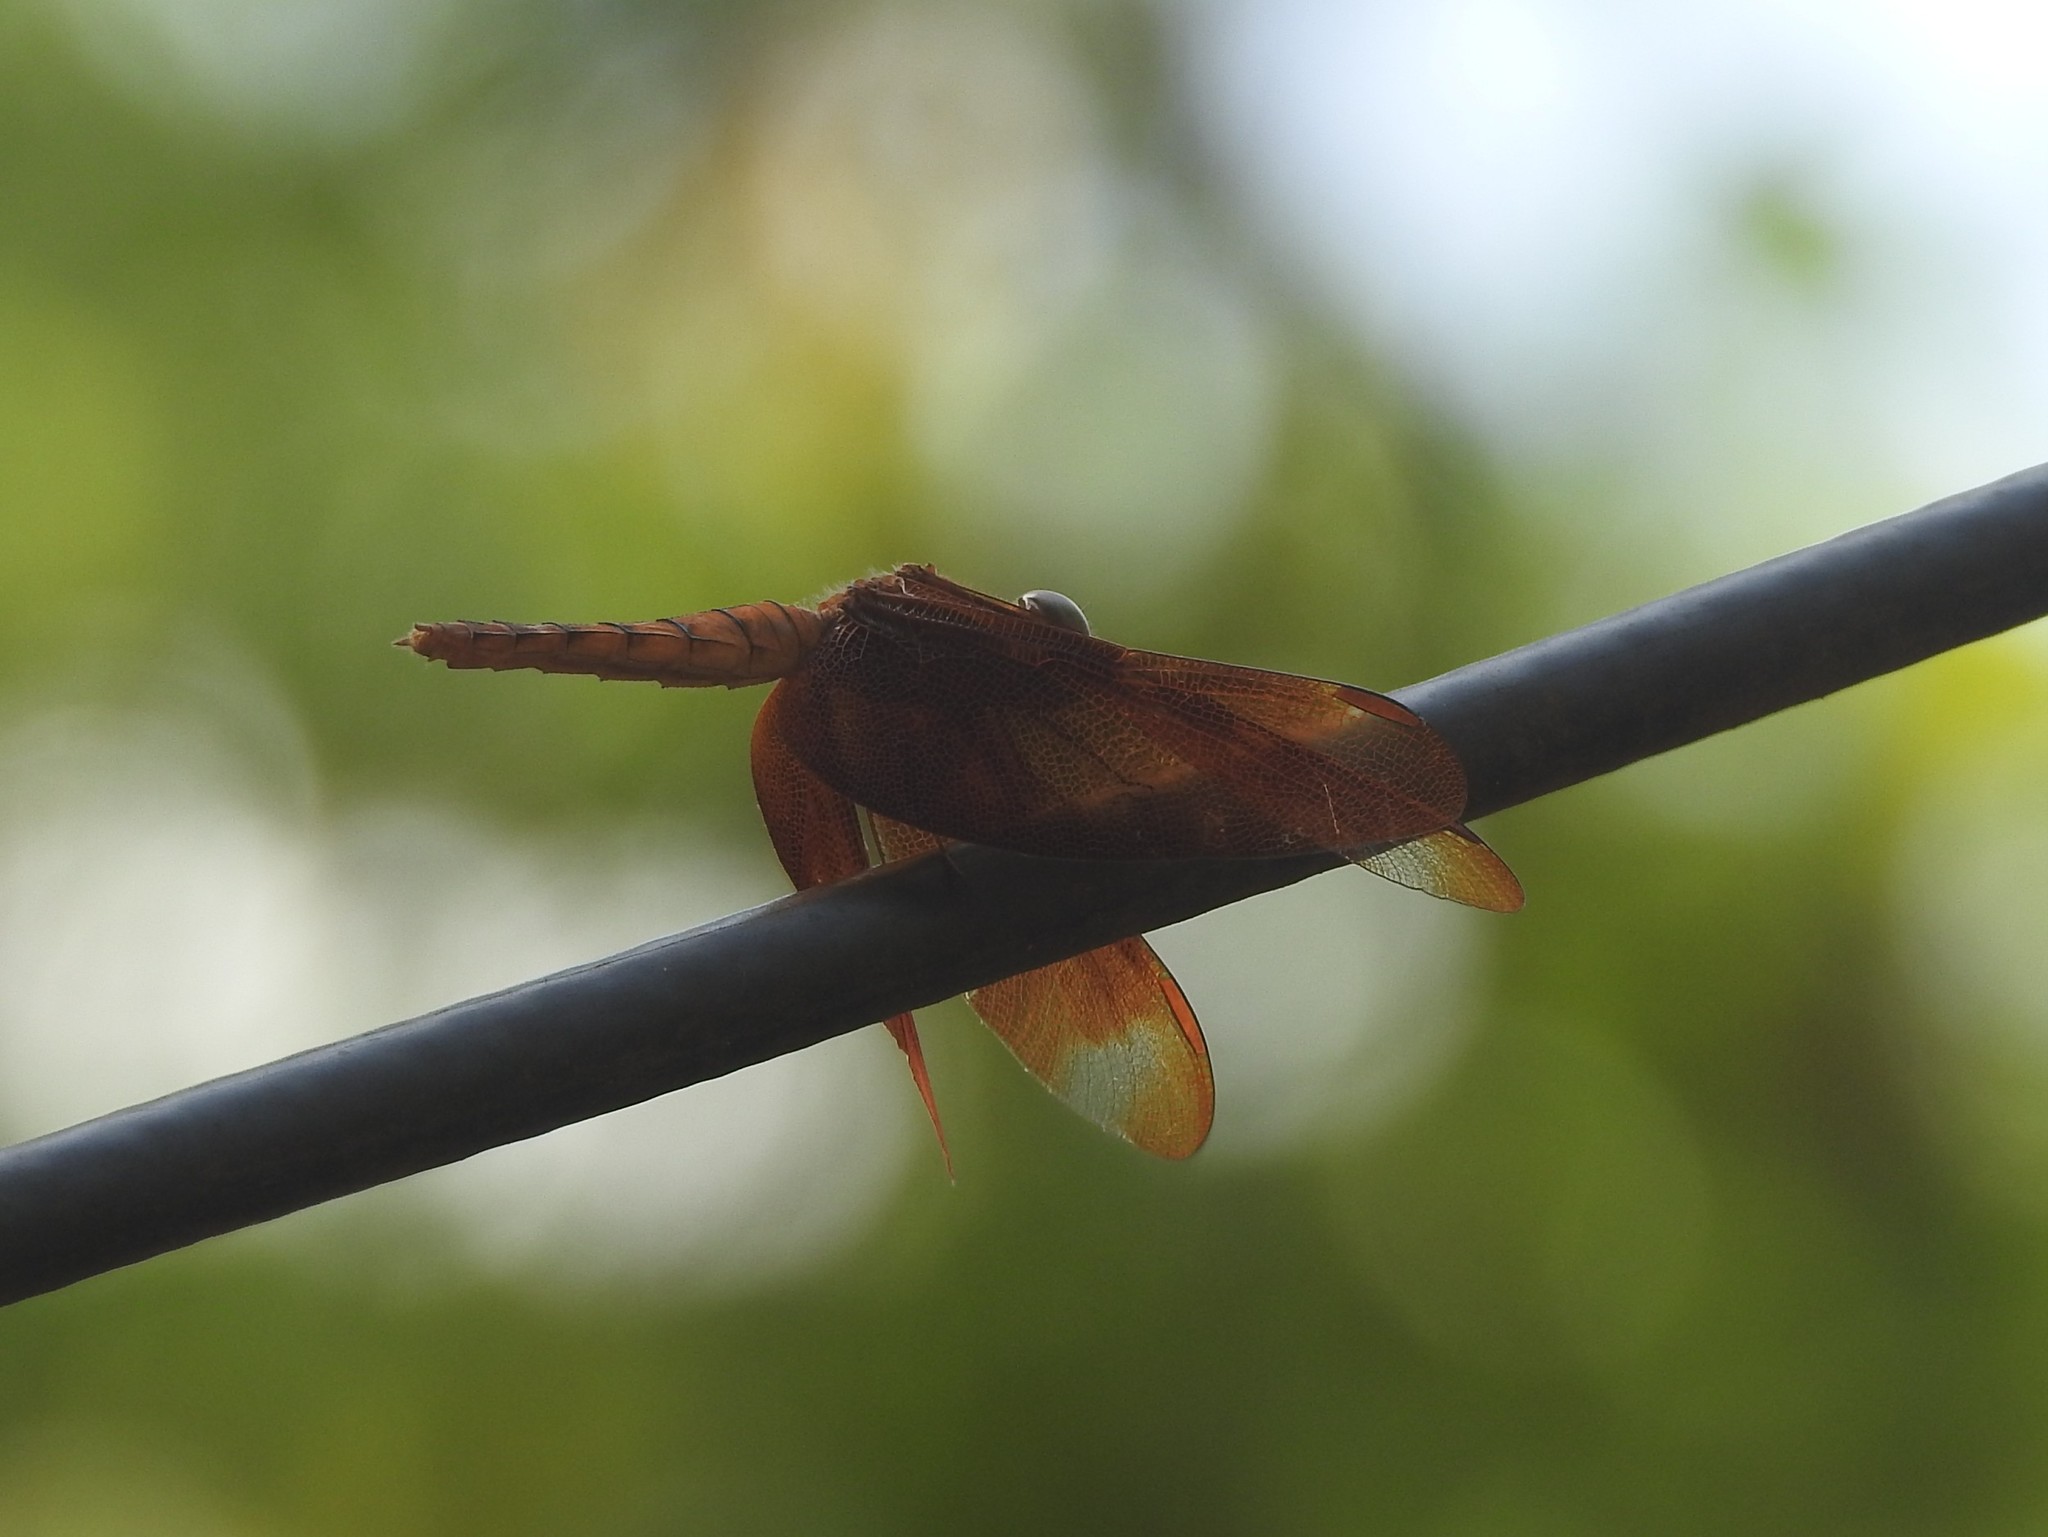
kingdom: Animalia
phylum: Arthropoda
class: Insecta
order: Odonata
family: Libellulidae
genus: Neurothemis
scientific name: Neurothemis fulvia
